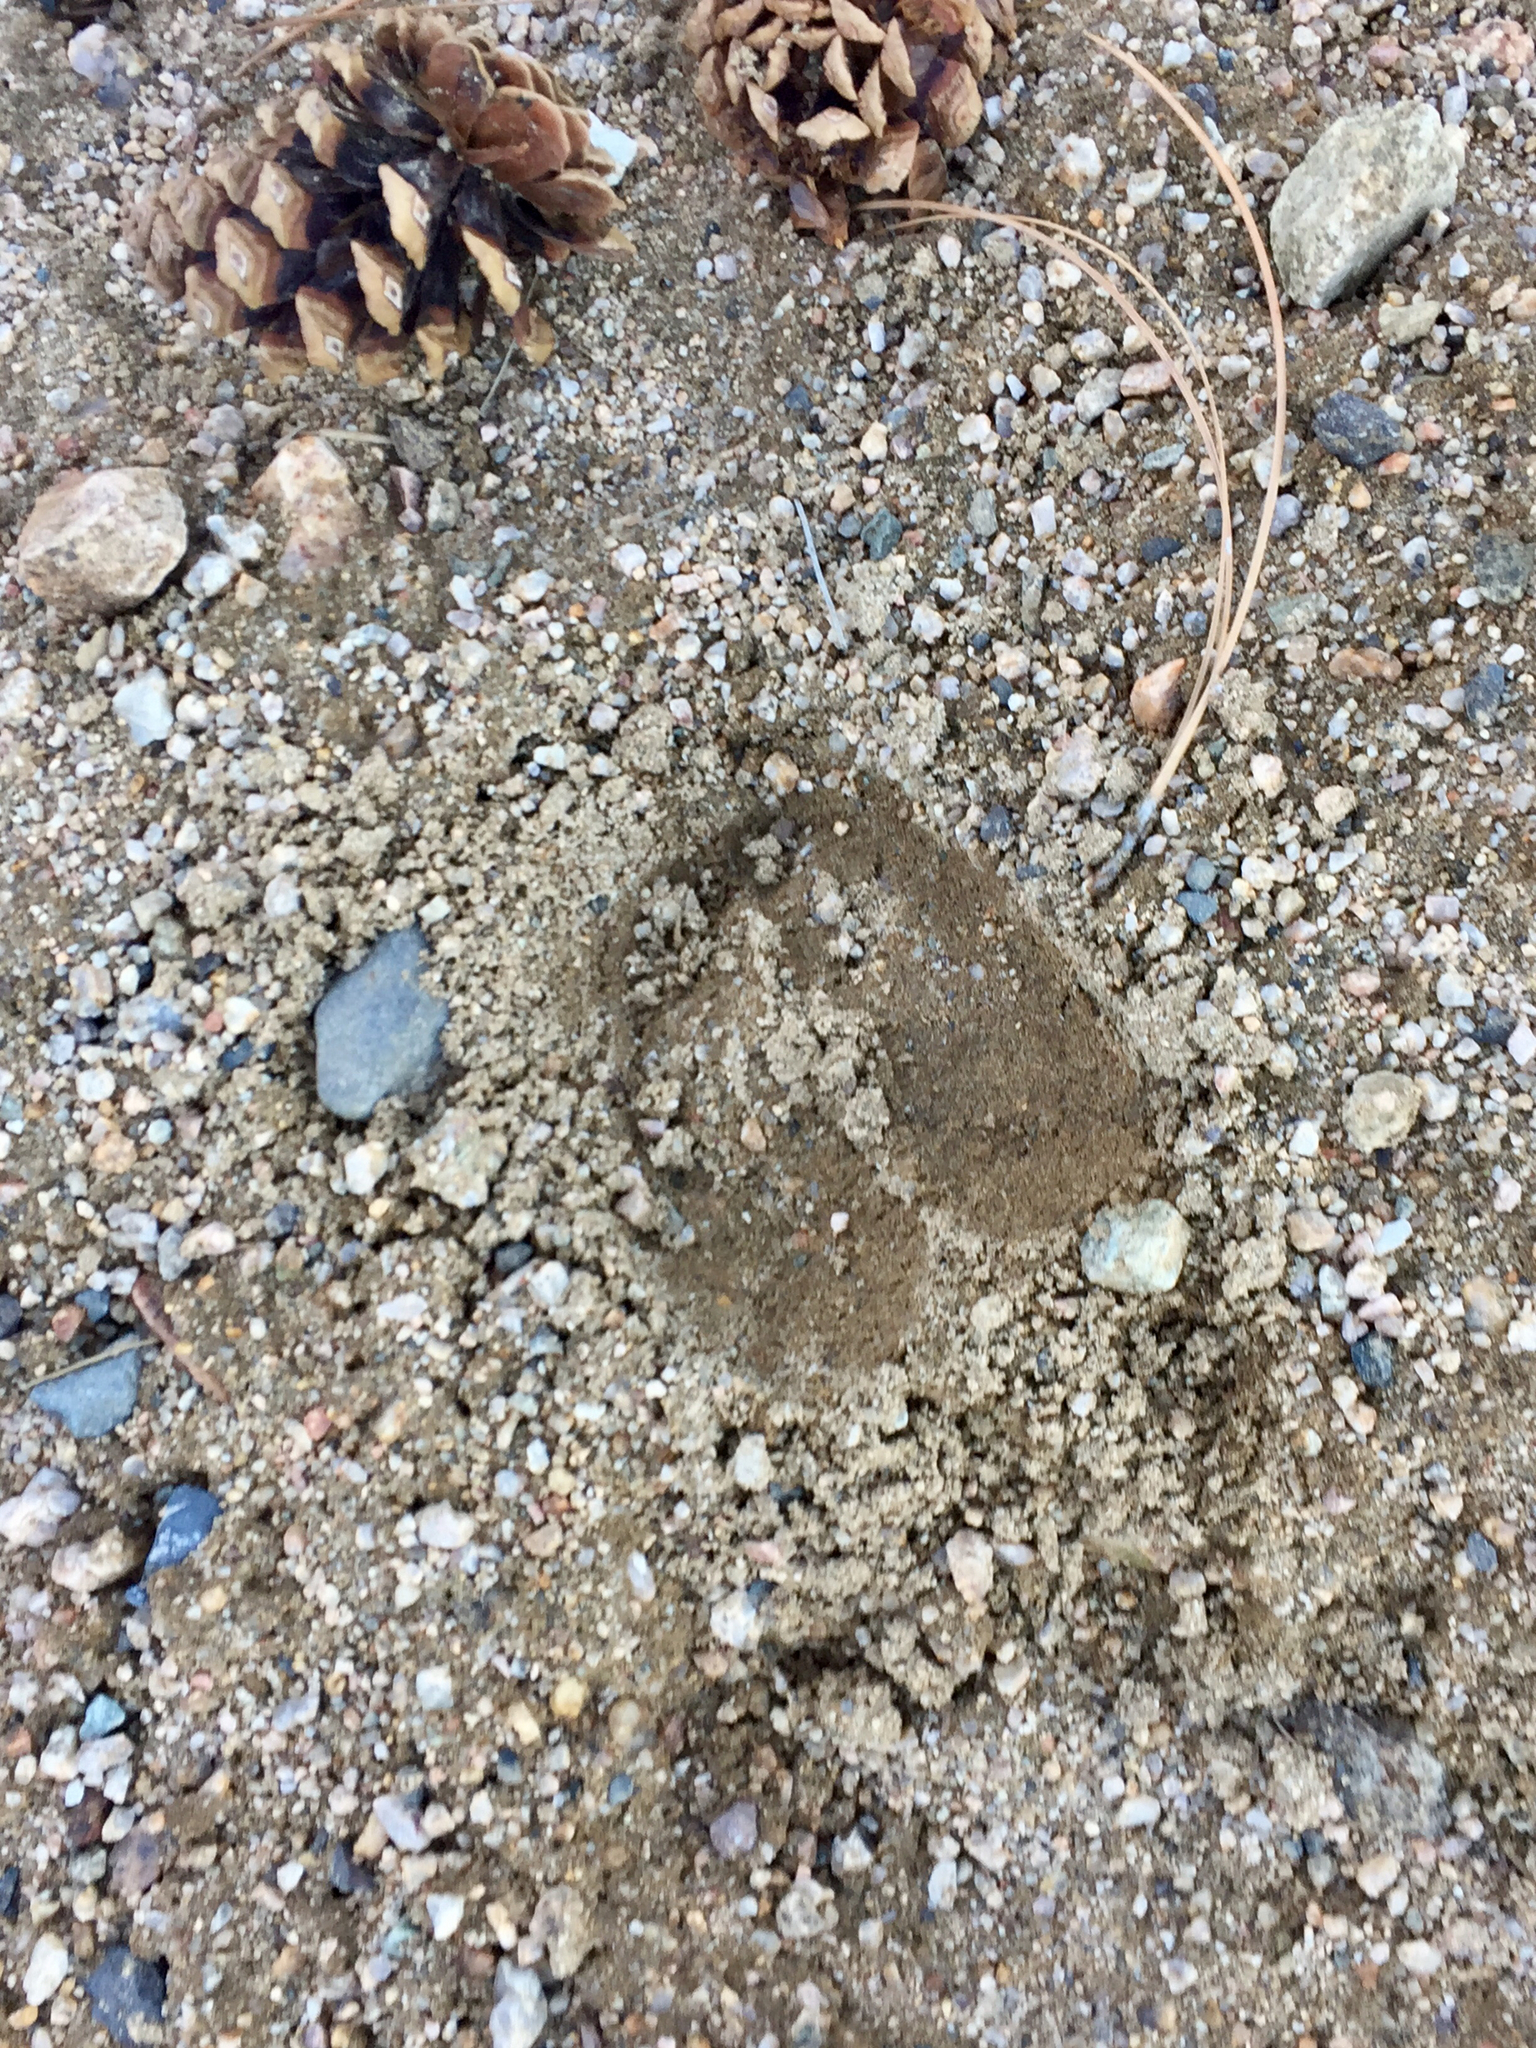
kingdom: Animalia
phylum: Chordata
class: Mammalia
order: Artiodactyla
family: Cervidae
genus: Cervus
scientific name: Cervus elaphus
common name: Red deer
